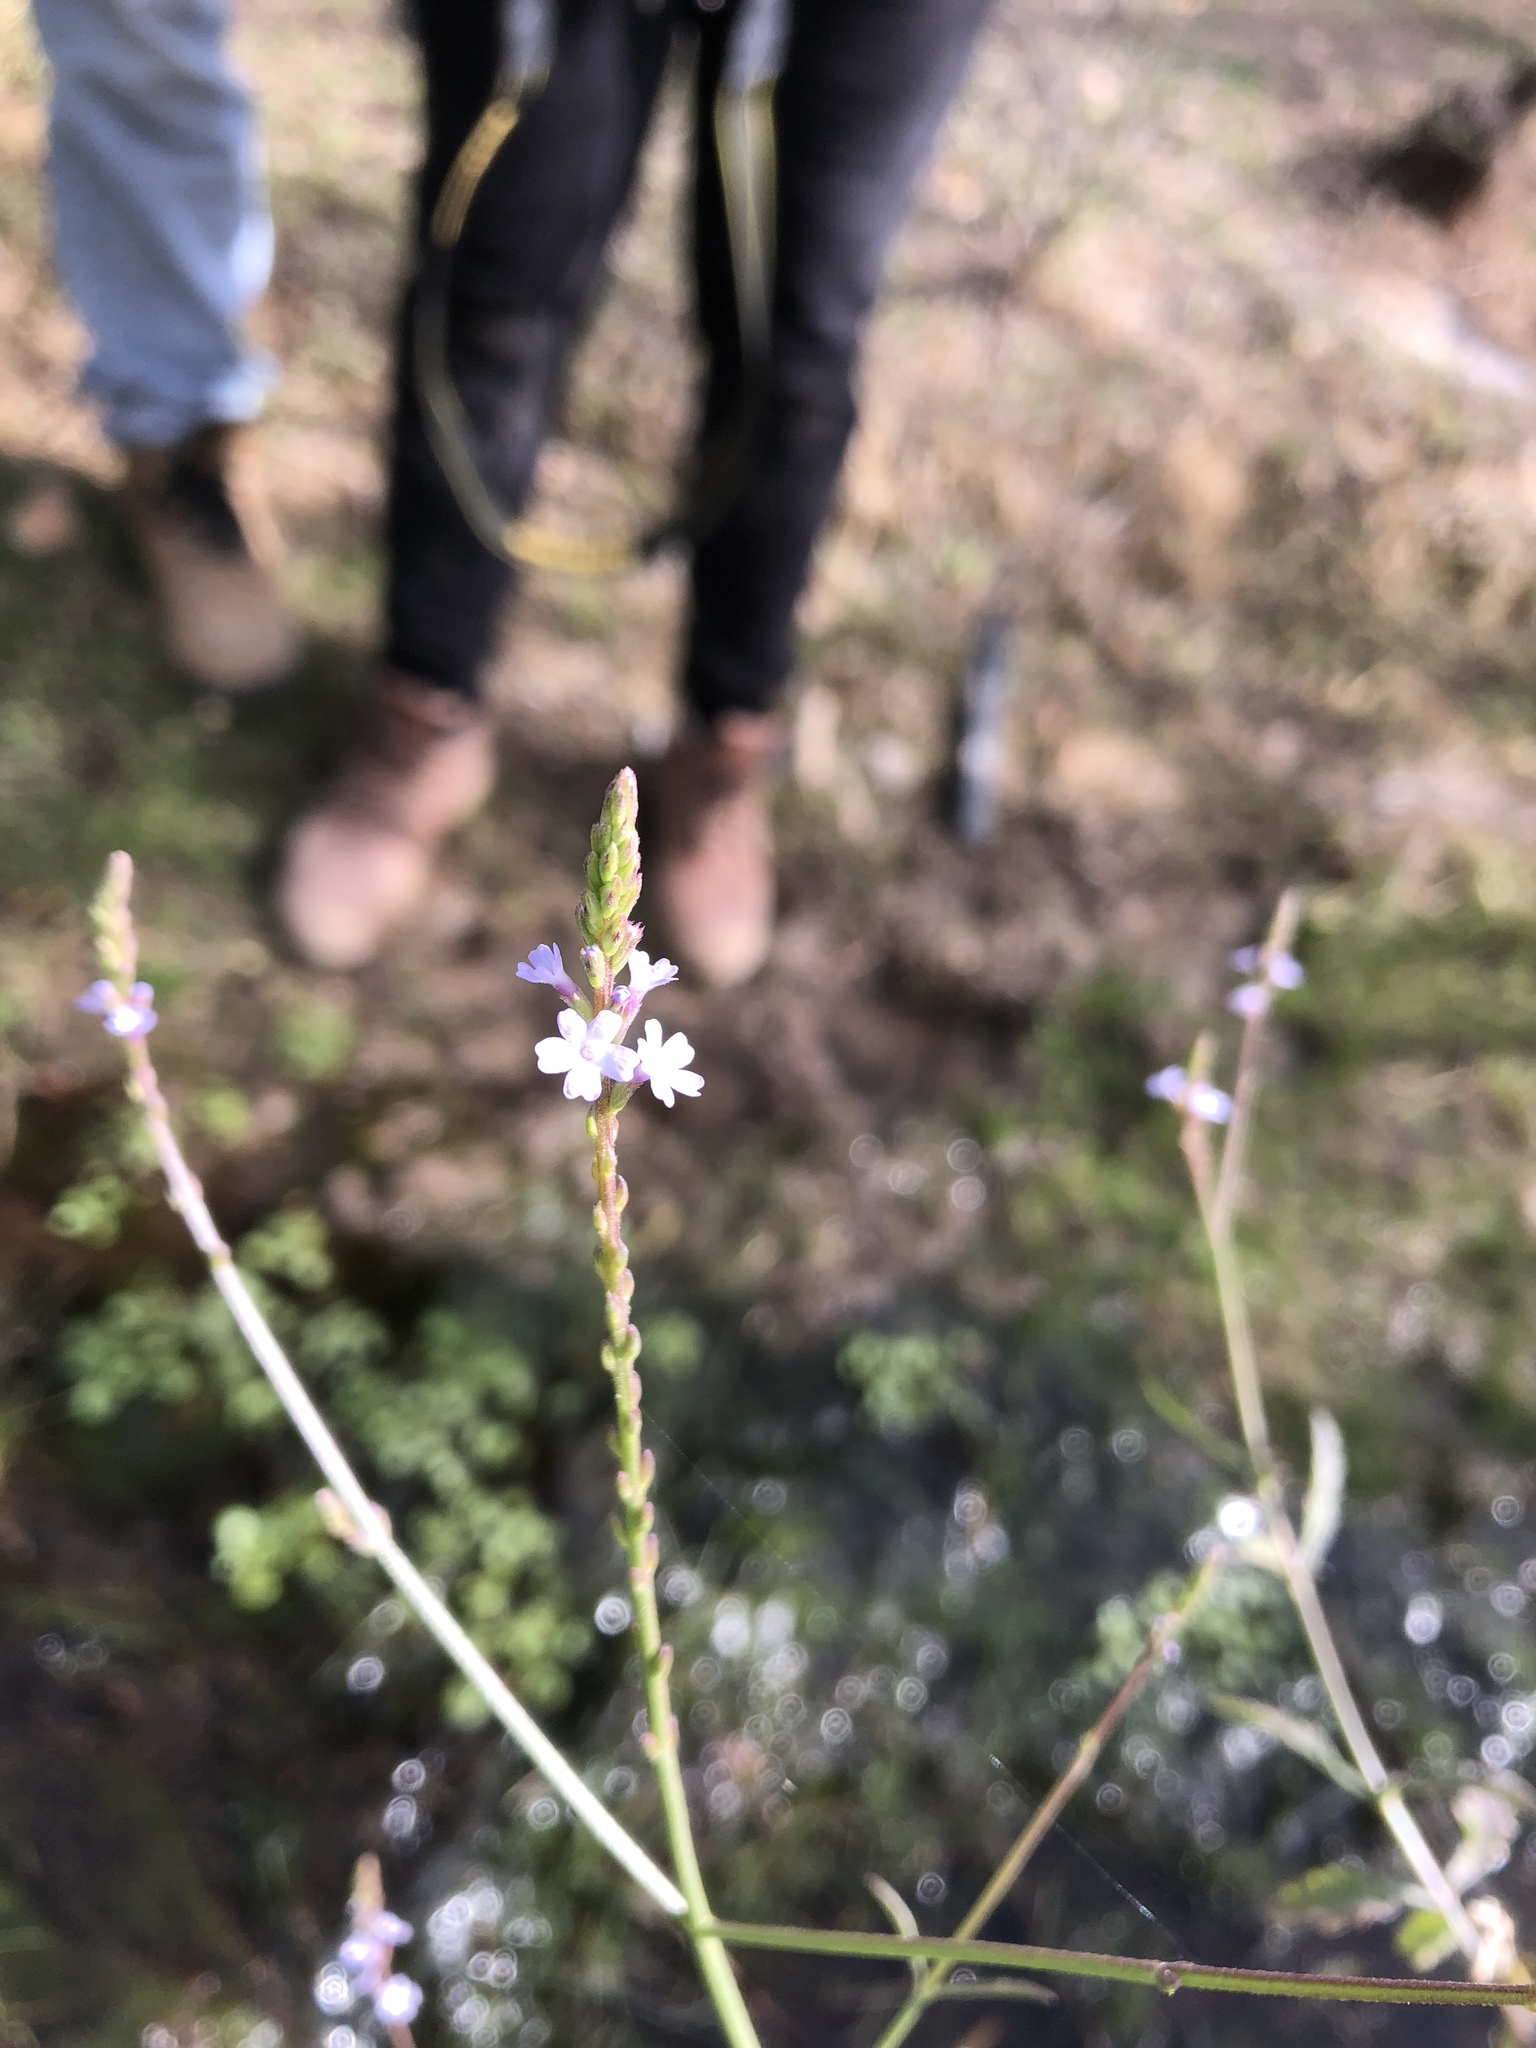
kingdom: Plantae
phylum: Tracheophyta
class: Magnoliopsida
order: Lamiales
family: Verbenaceae
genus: Verbena
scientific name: Verbena neomexicana
